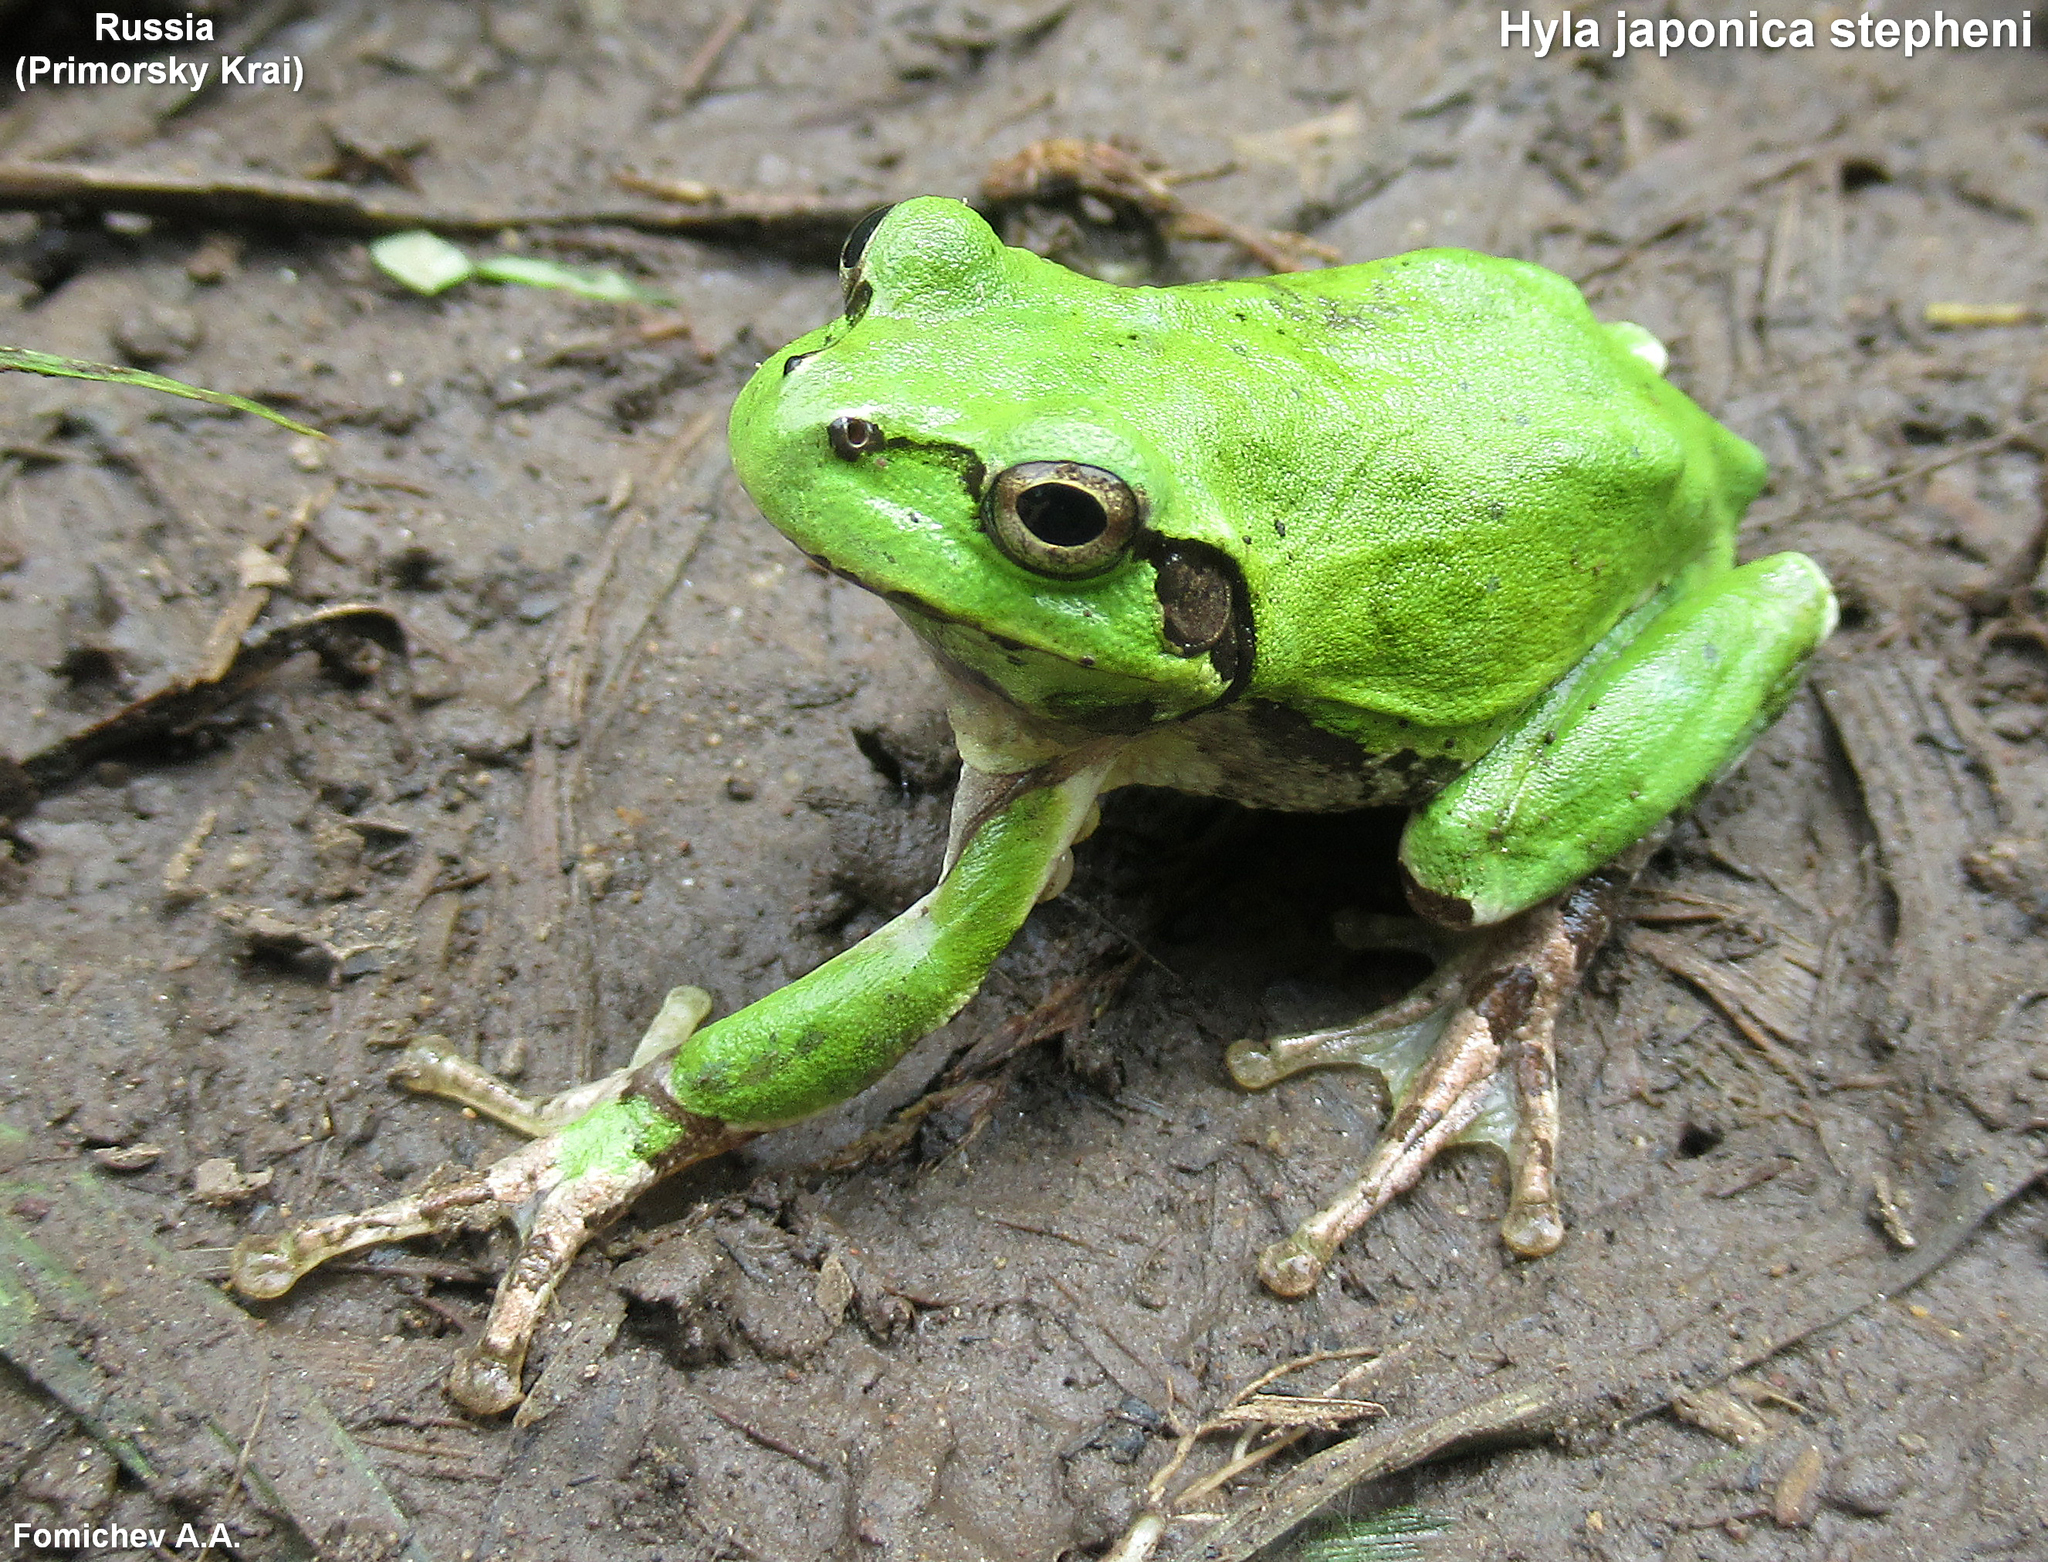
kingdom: Animalia
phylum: Chordata
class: Amphibia
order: Anura
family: Hylidae
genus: Dryophytes
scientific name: Dryophytes japonicus
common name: Japanese treefrog
